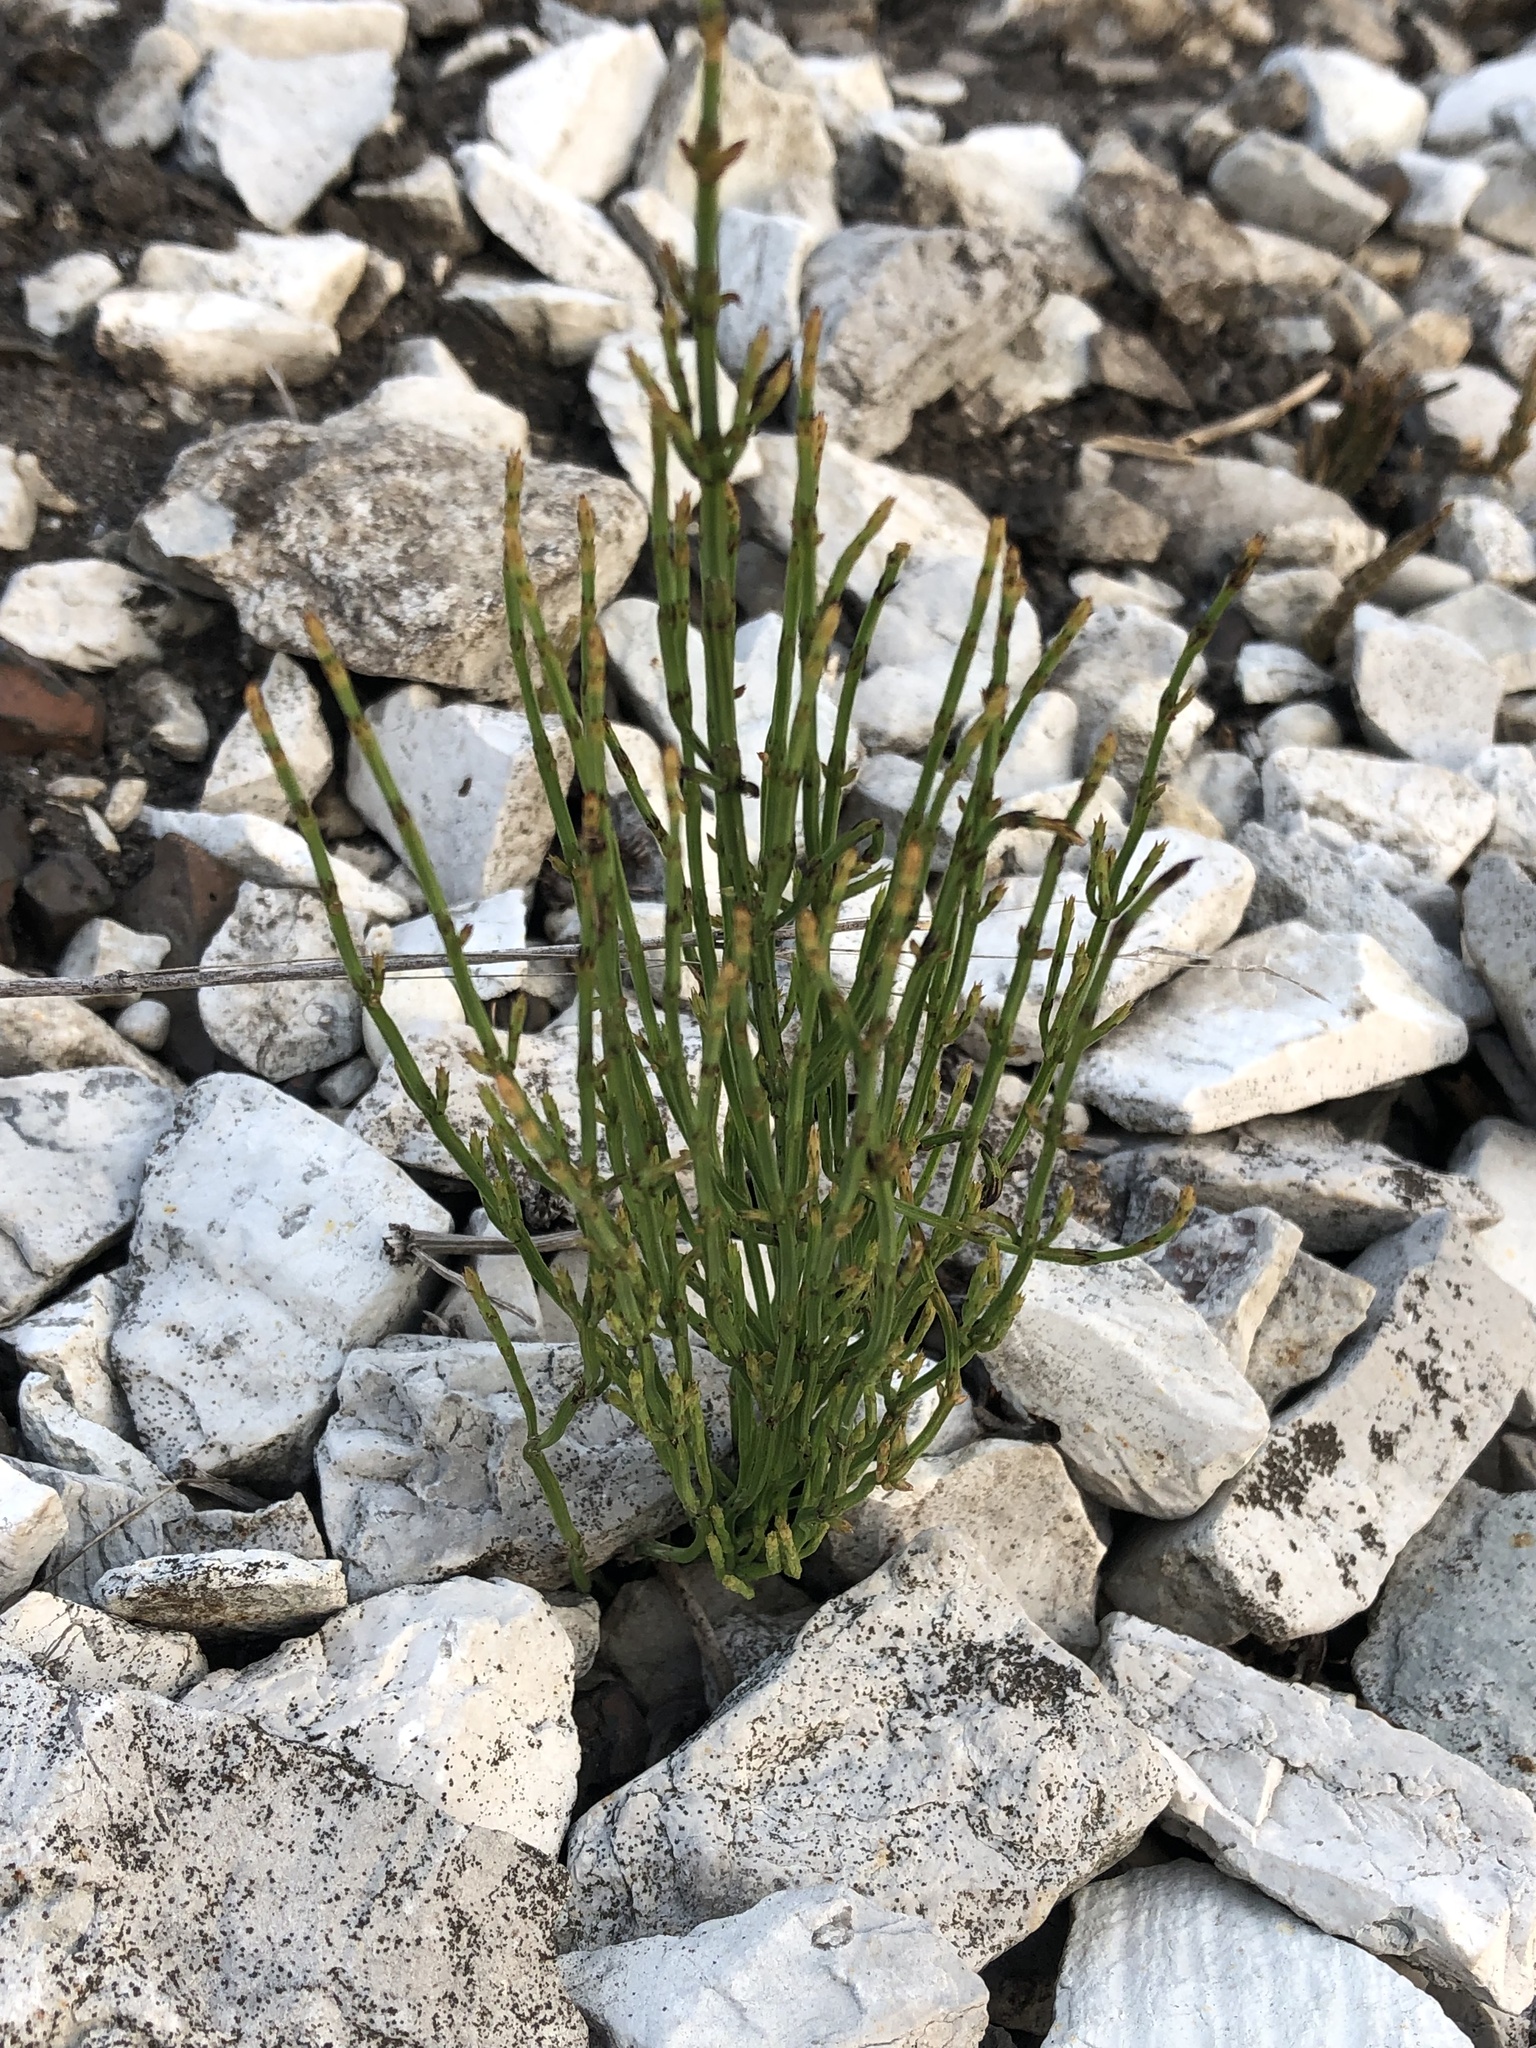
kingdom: Plantae
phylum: Tracheophyta
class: Polypodiopsida
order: Equisetales
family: Equisetaceae
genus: Equisetum
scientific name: Equisetum arvense
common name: Field horsetail
